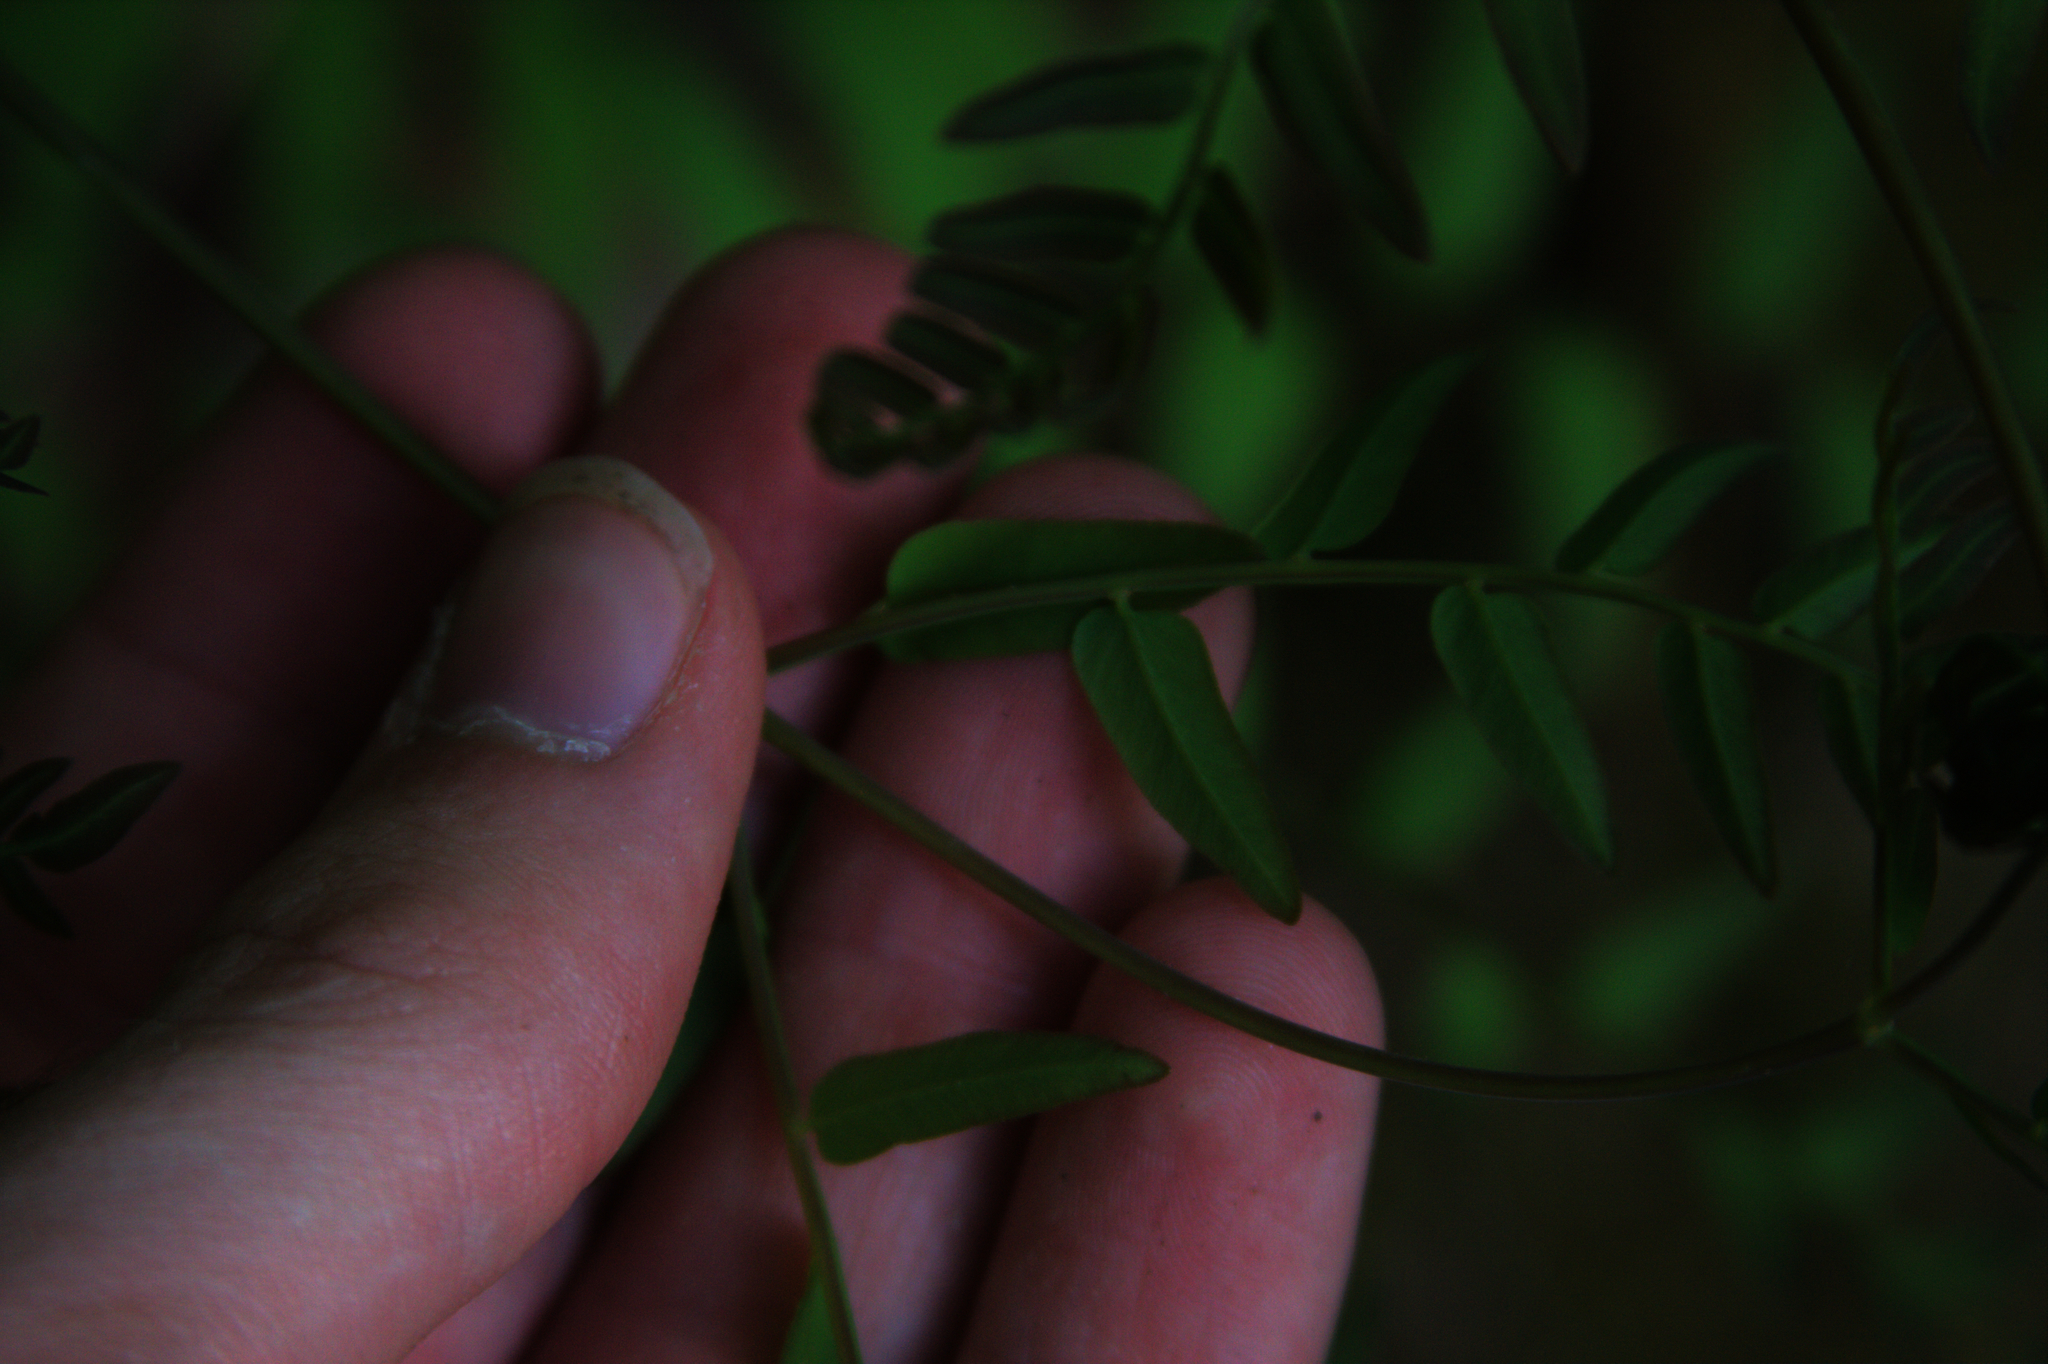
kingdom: Plantae
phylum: Tracheophyta
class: Polypodiopsida
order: Osmundales
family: Osmundaceae
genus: Osmunda
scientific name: Osmunda spectabilis
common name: American royal fern
